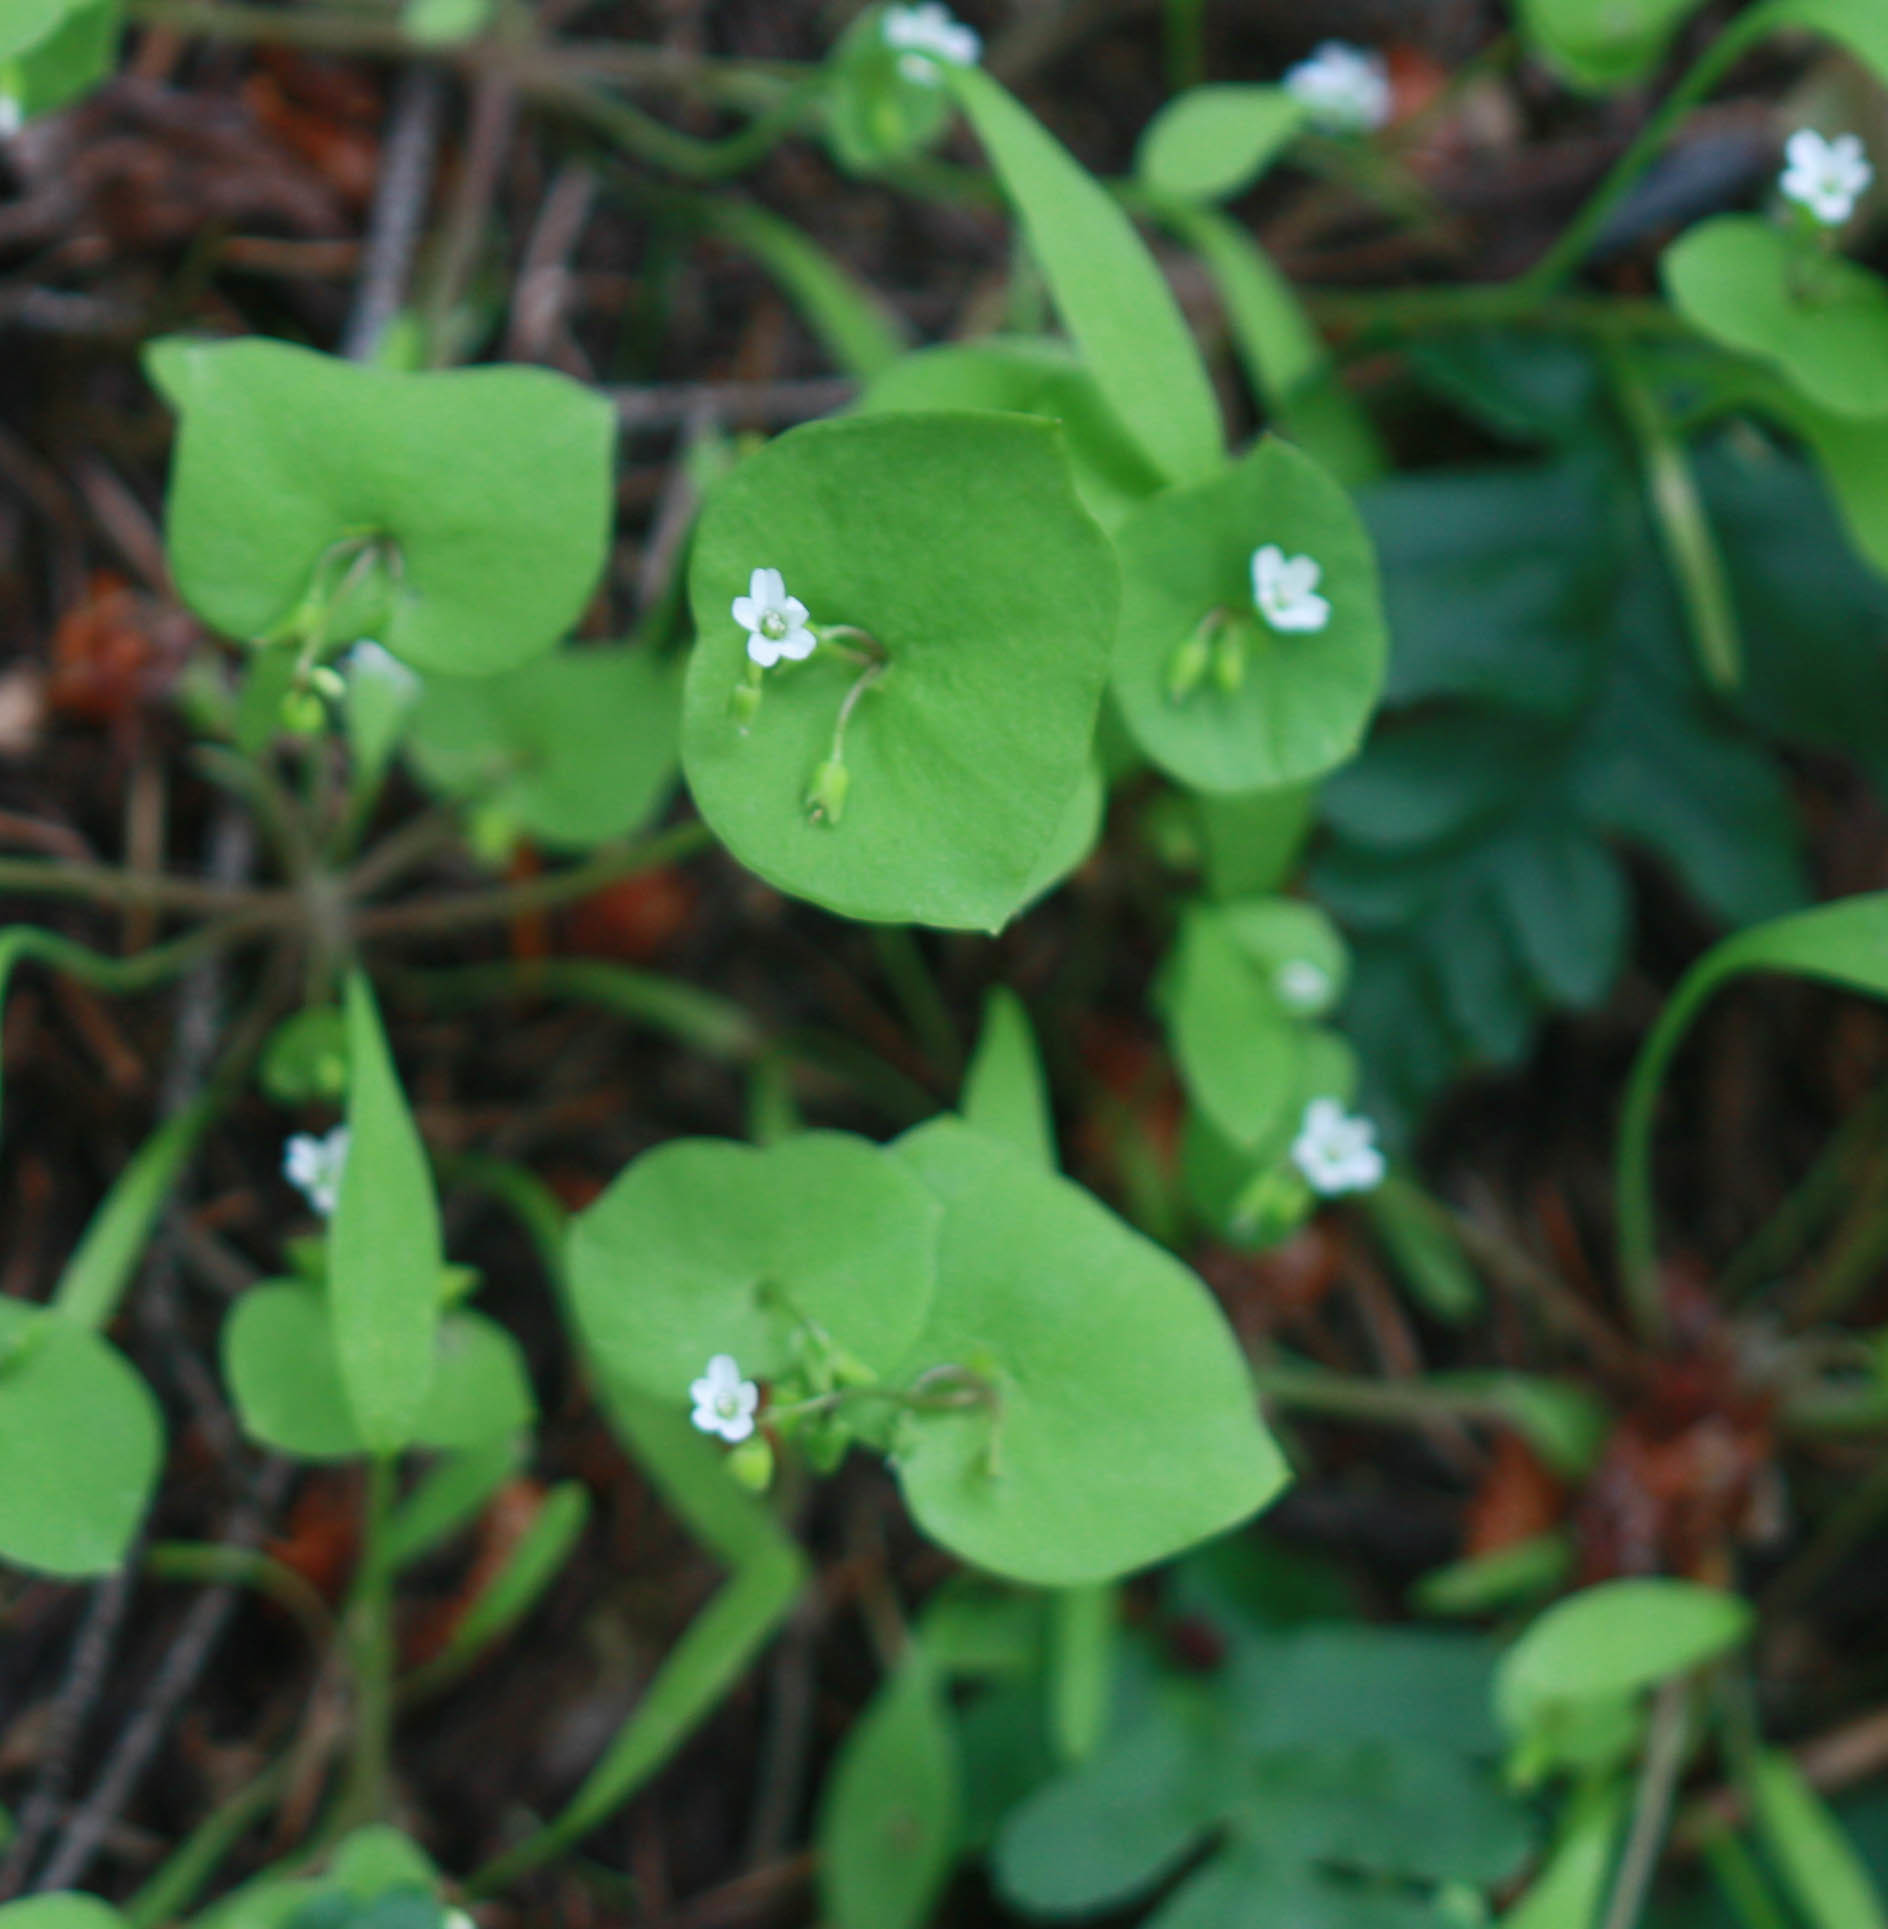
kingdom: Plantae
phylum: Tracheophyta
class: Magnoliopsida
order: Caryophyllales
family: Montiaceae
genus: Claytonia
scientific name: Claytonia perfoliata
